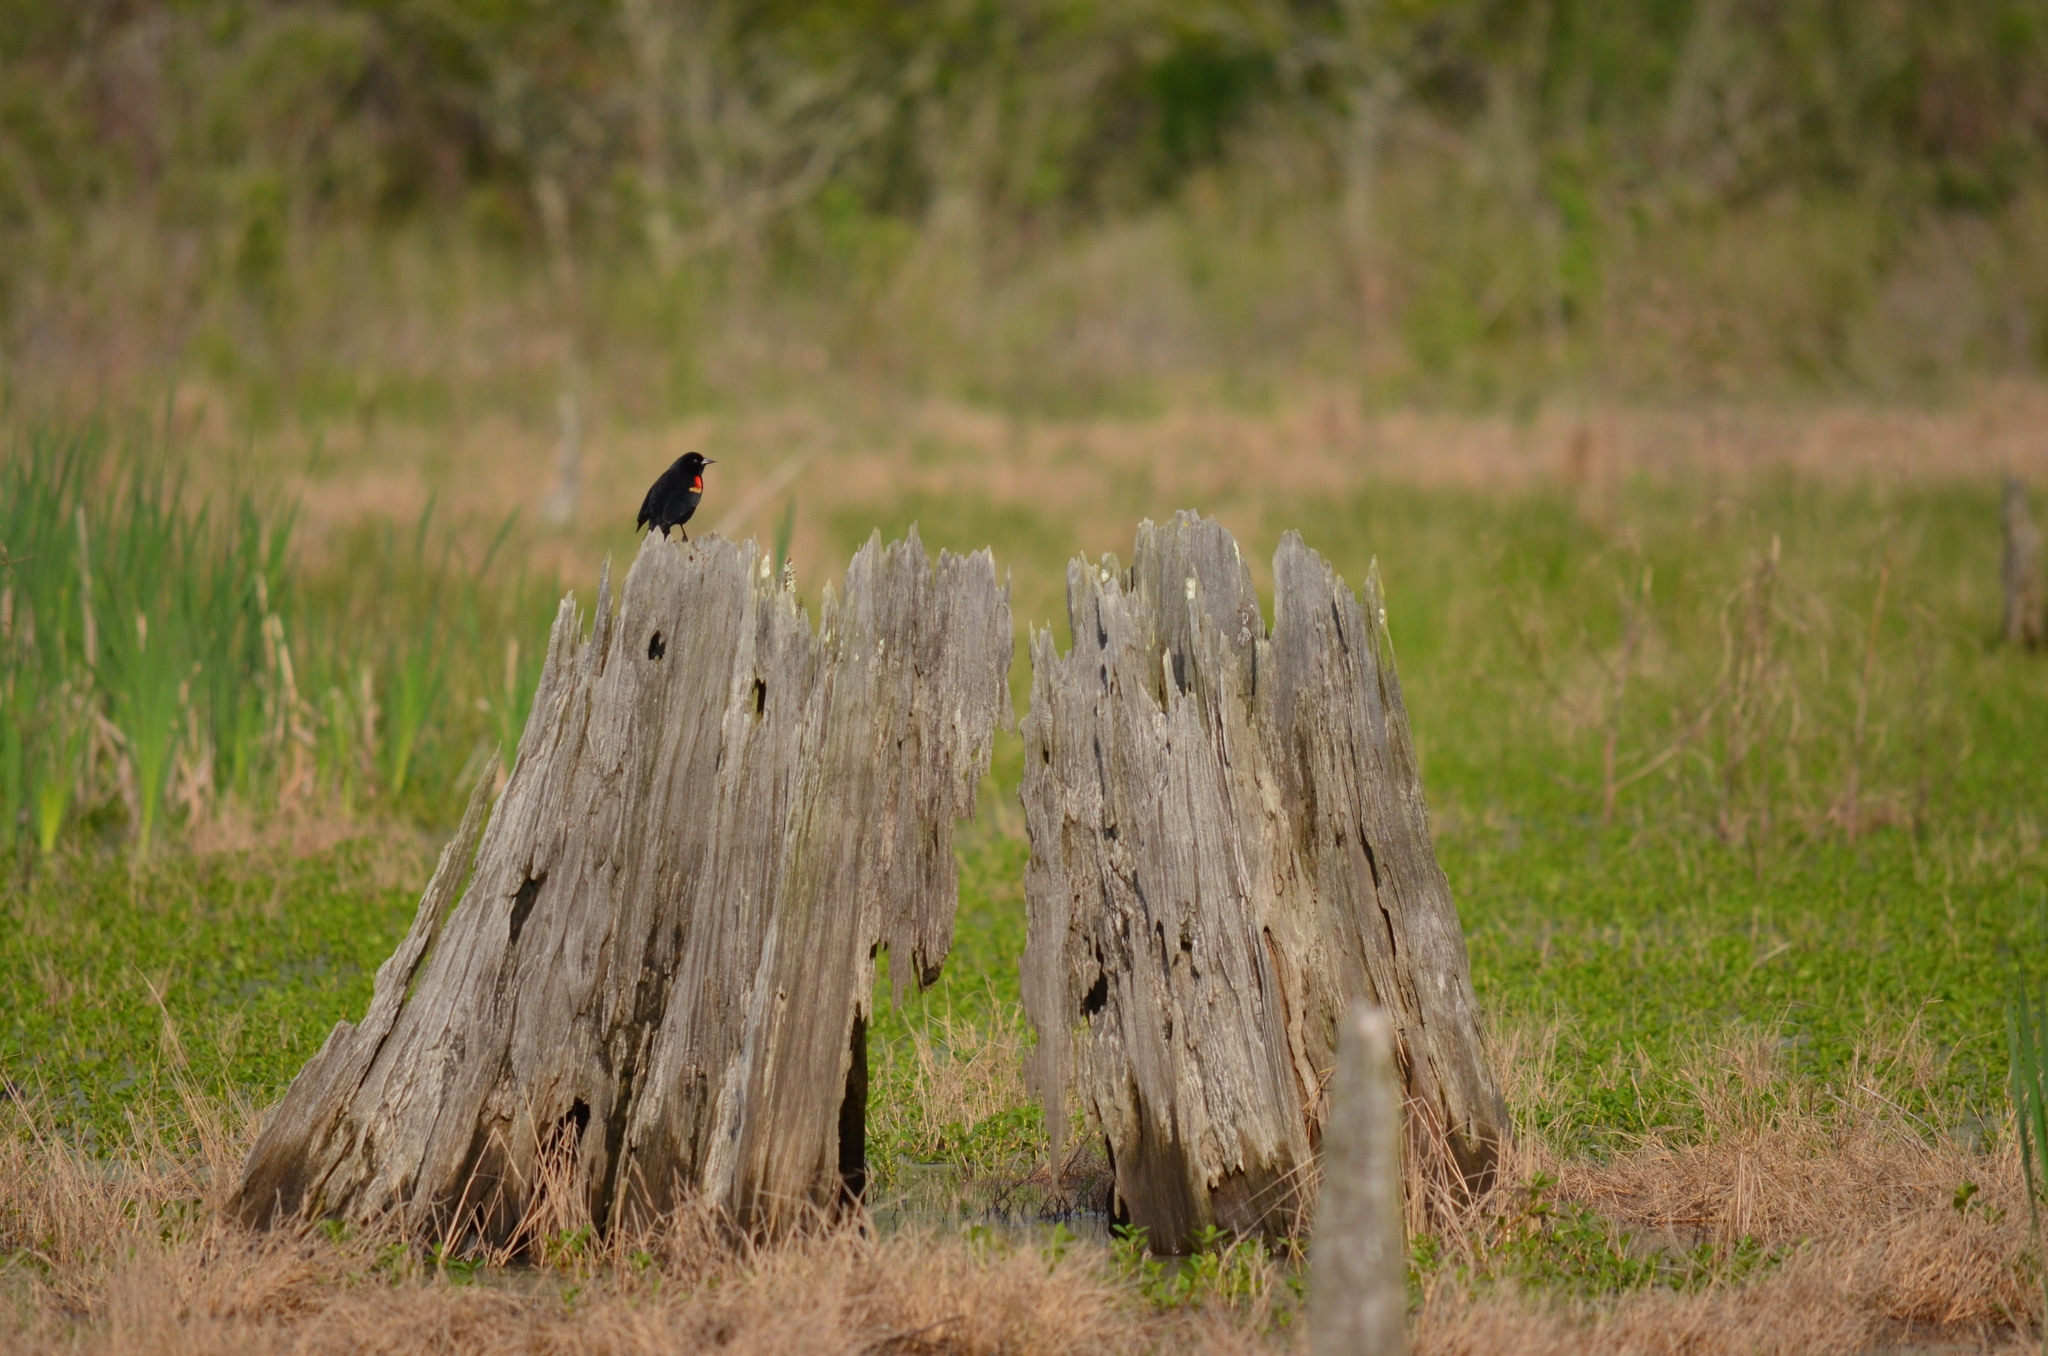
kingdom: Animalia
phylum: Chordata
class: Aves
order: Passeriformes
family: Icteridae
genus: Agelaius
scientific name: Agelaius phoeniceus
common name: Red-winged blackbird
